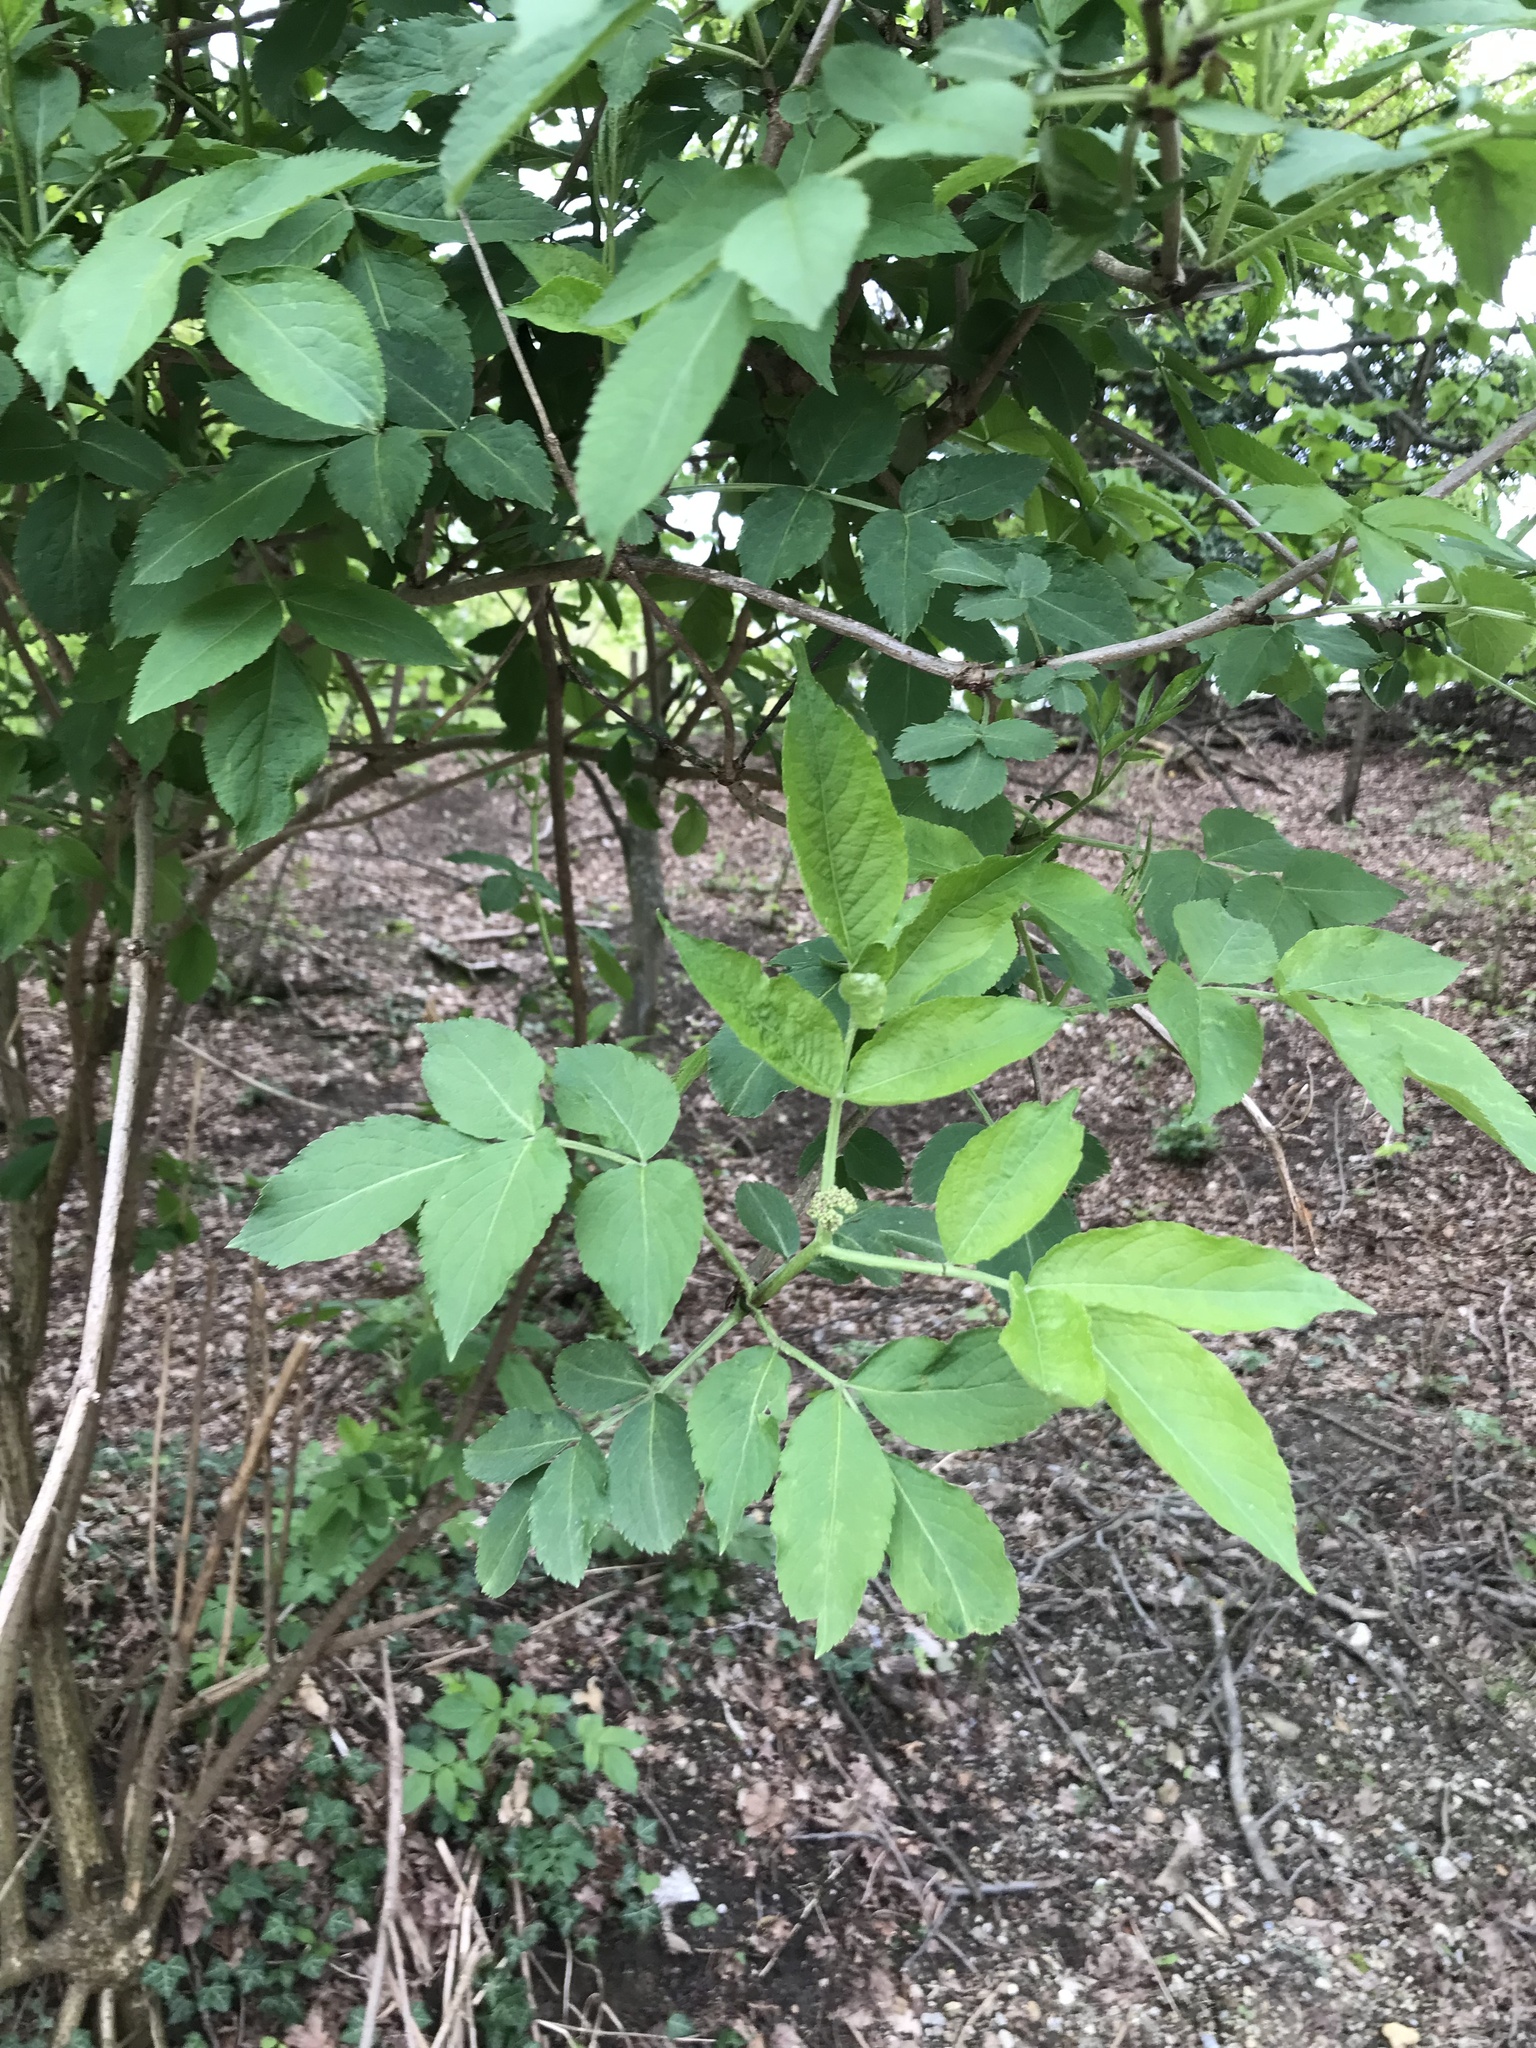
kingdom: Plantae
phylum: Tracheophyta
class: Magnoliopsida
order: Dipsacales
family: Viburnaceae
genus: Sambucus
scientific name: Sambucus nigra
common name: Elder
